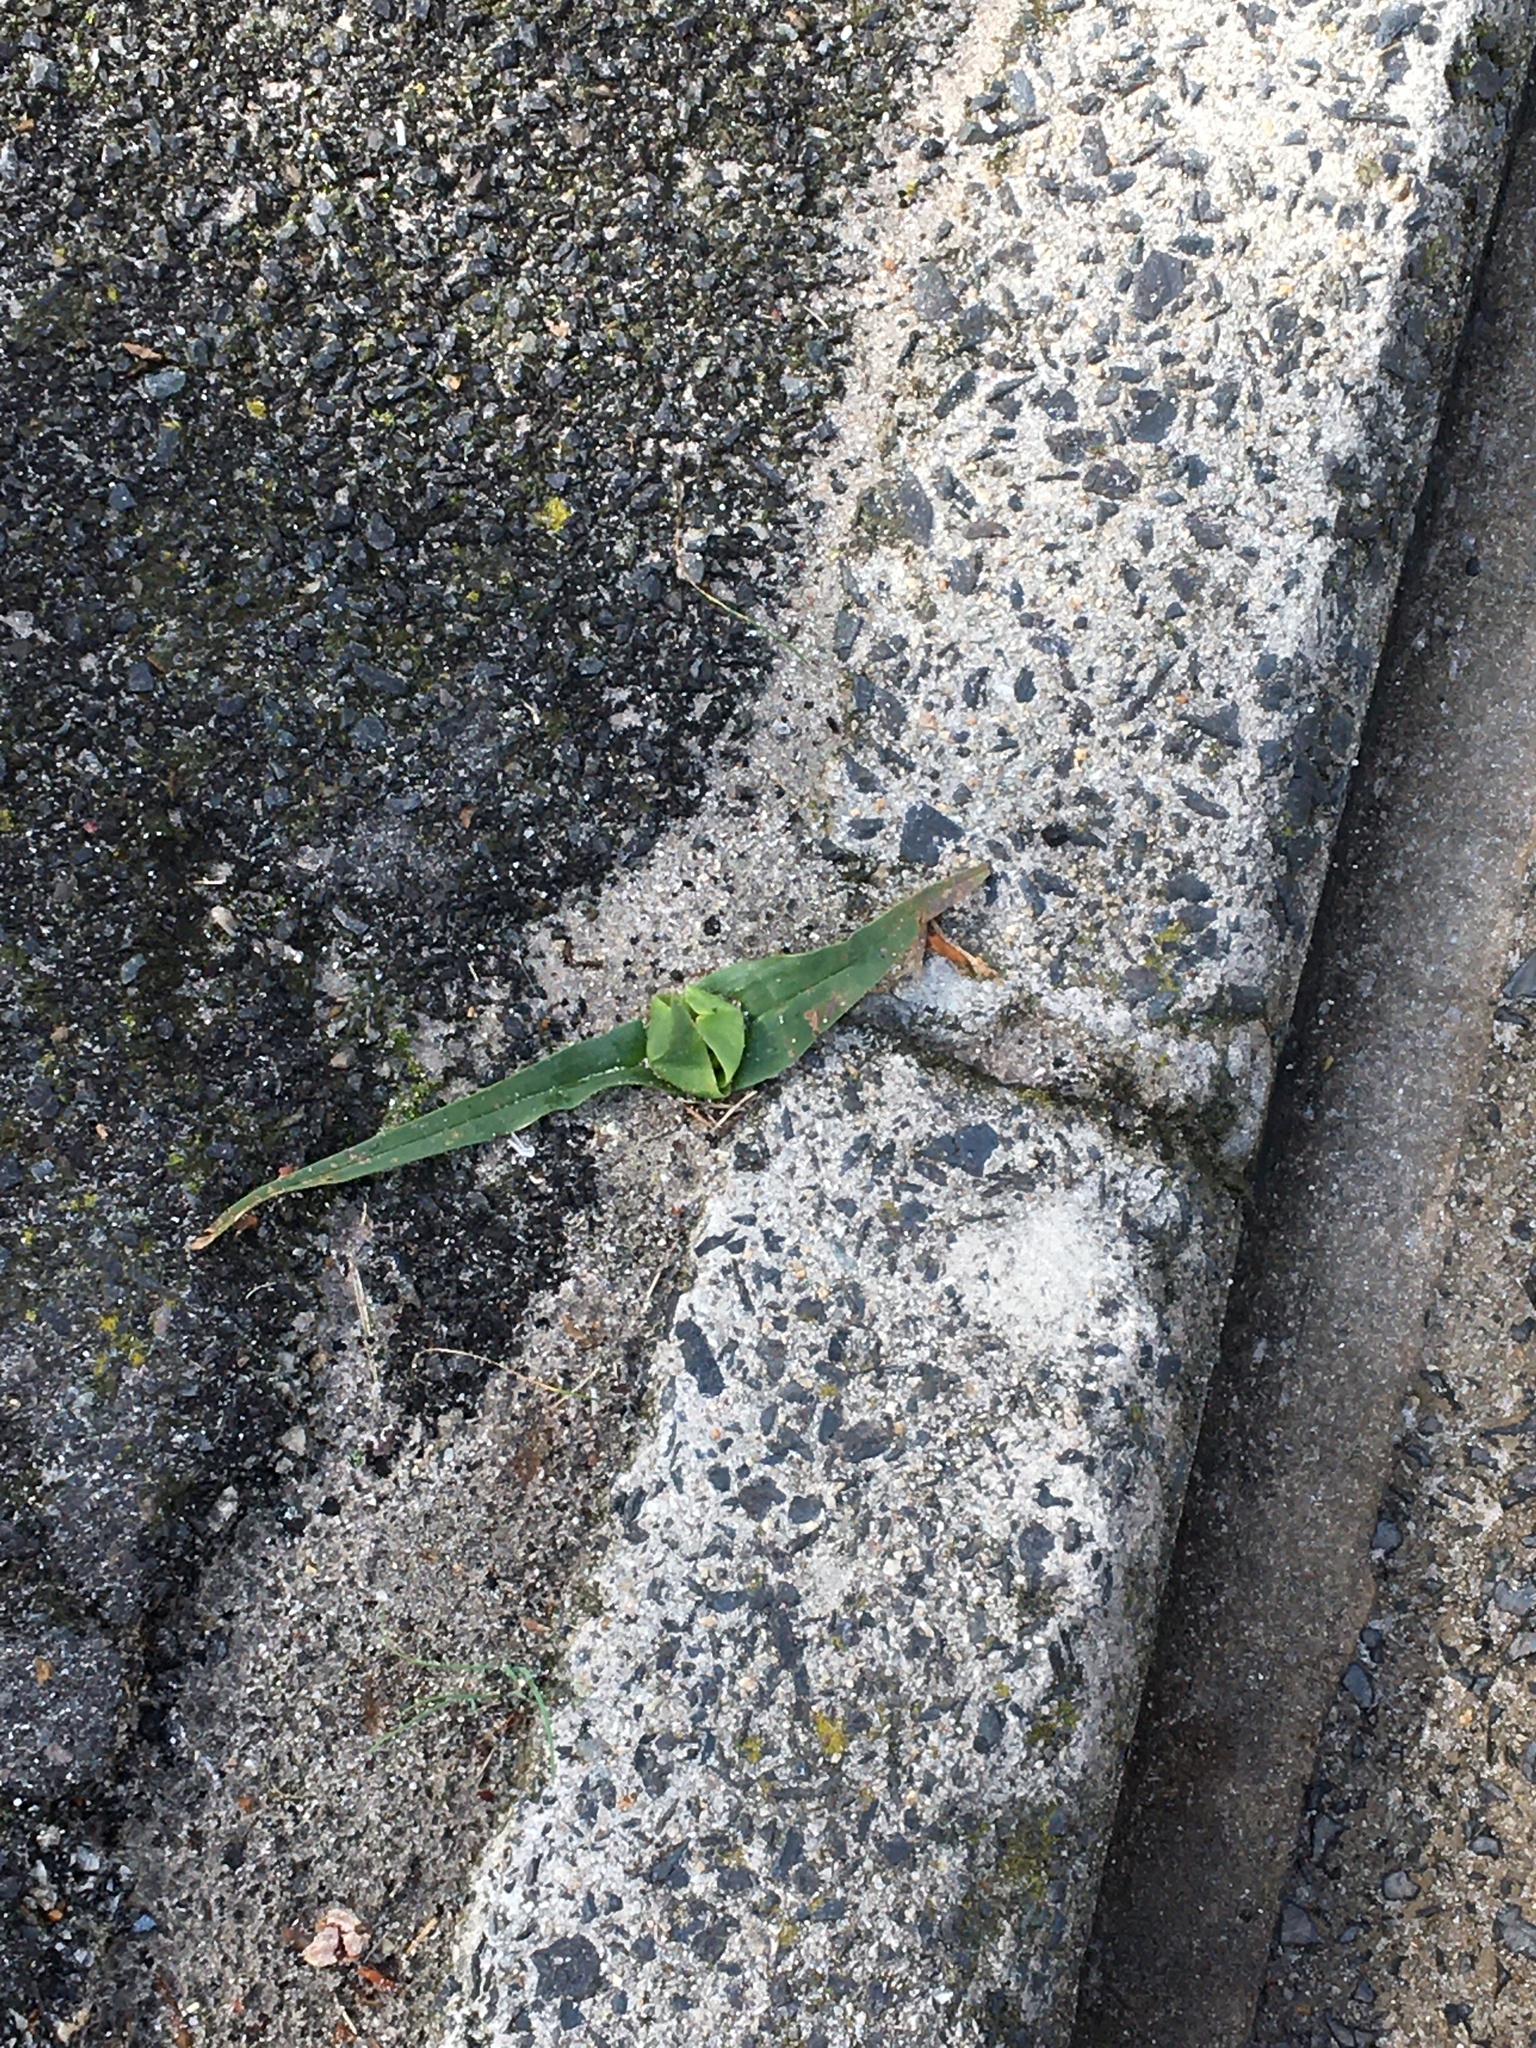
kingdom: Plantae
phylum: Tracheophyta
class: Liliopsida
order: Liliales
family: Colchicaceae
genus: Colchicum
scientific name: Colchicum eucomoides
